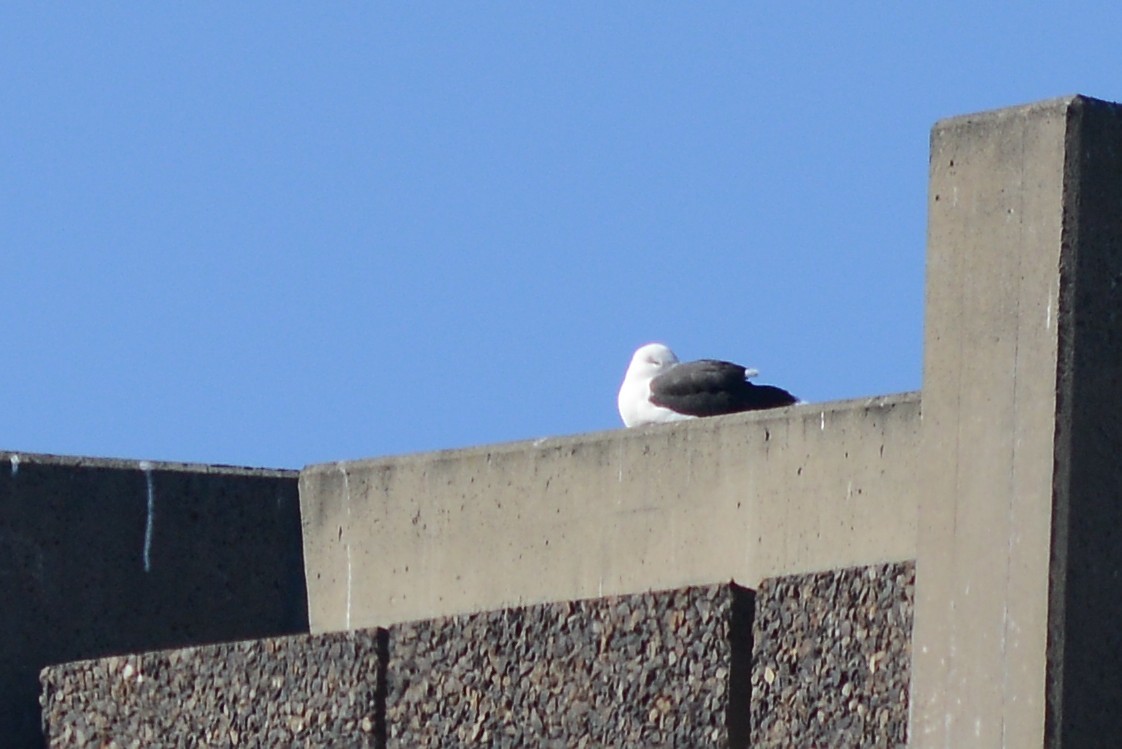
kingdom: Animalia
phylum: Chordata
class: Aves
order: Charadriiformes
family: Laridae
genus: Larus
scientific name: Larus dominicanus
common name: Kelp gull
